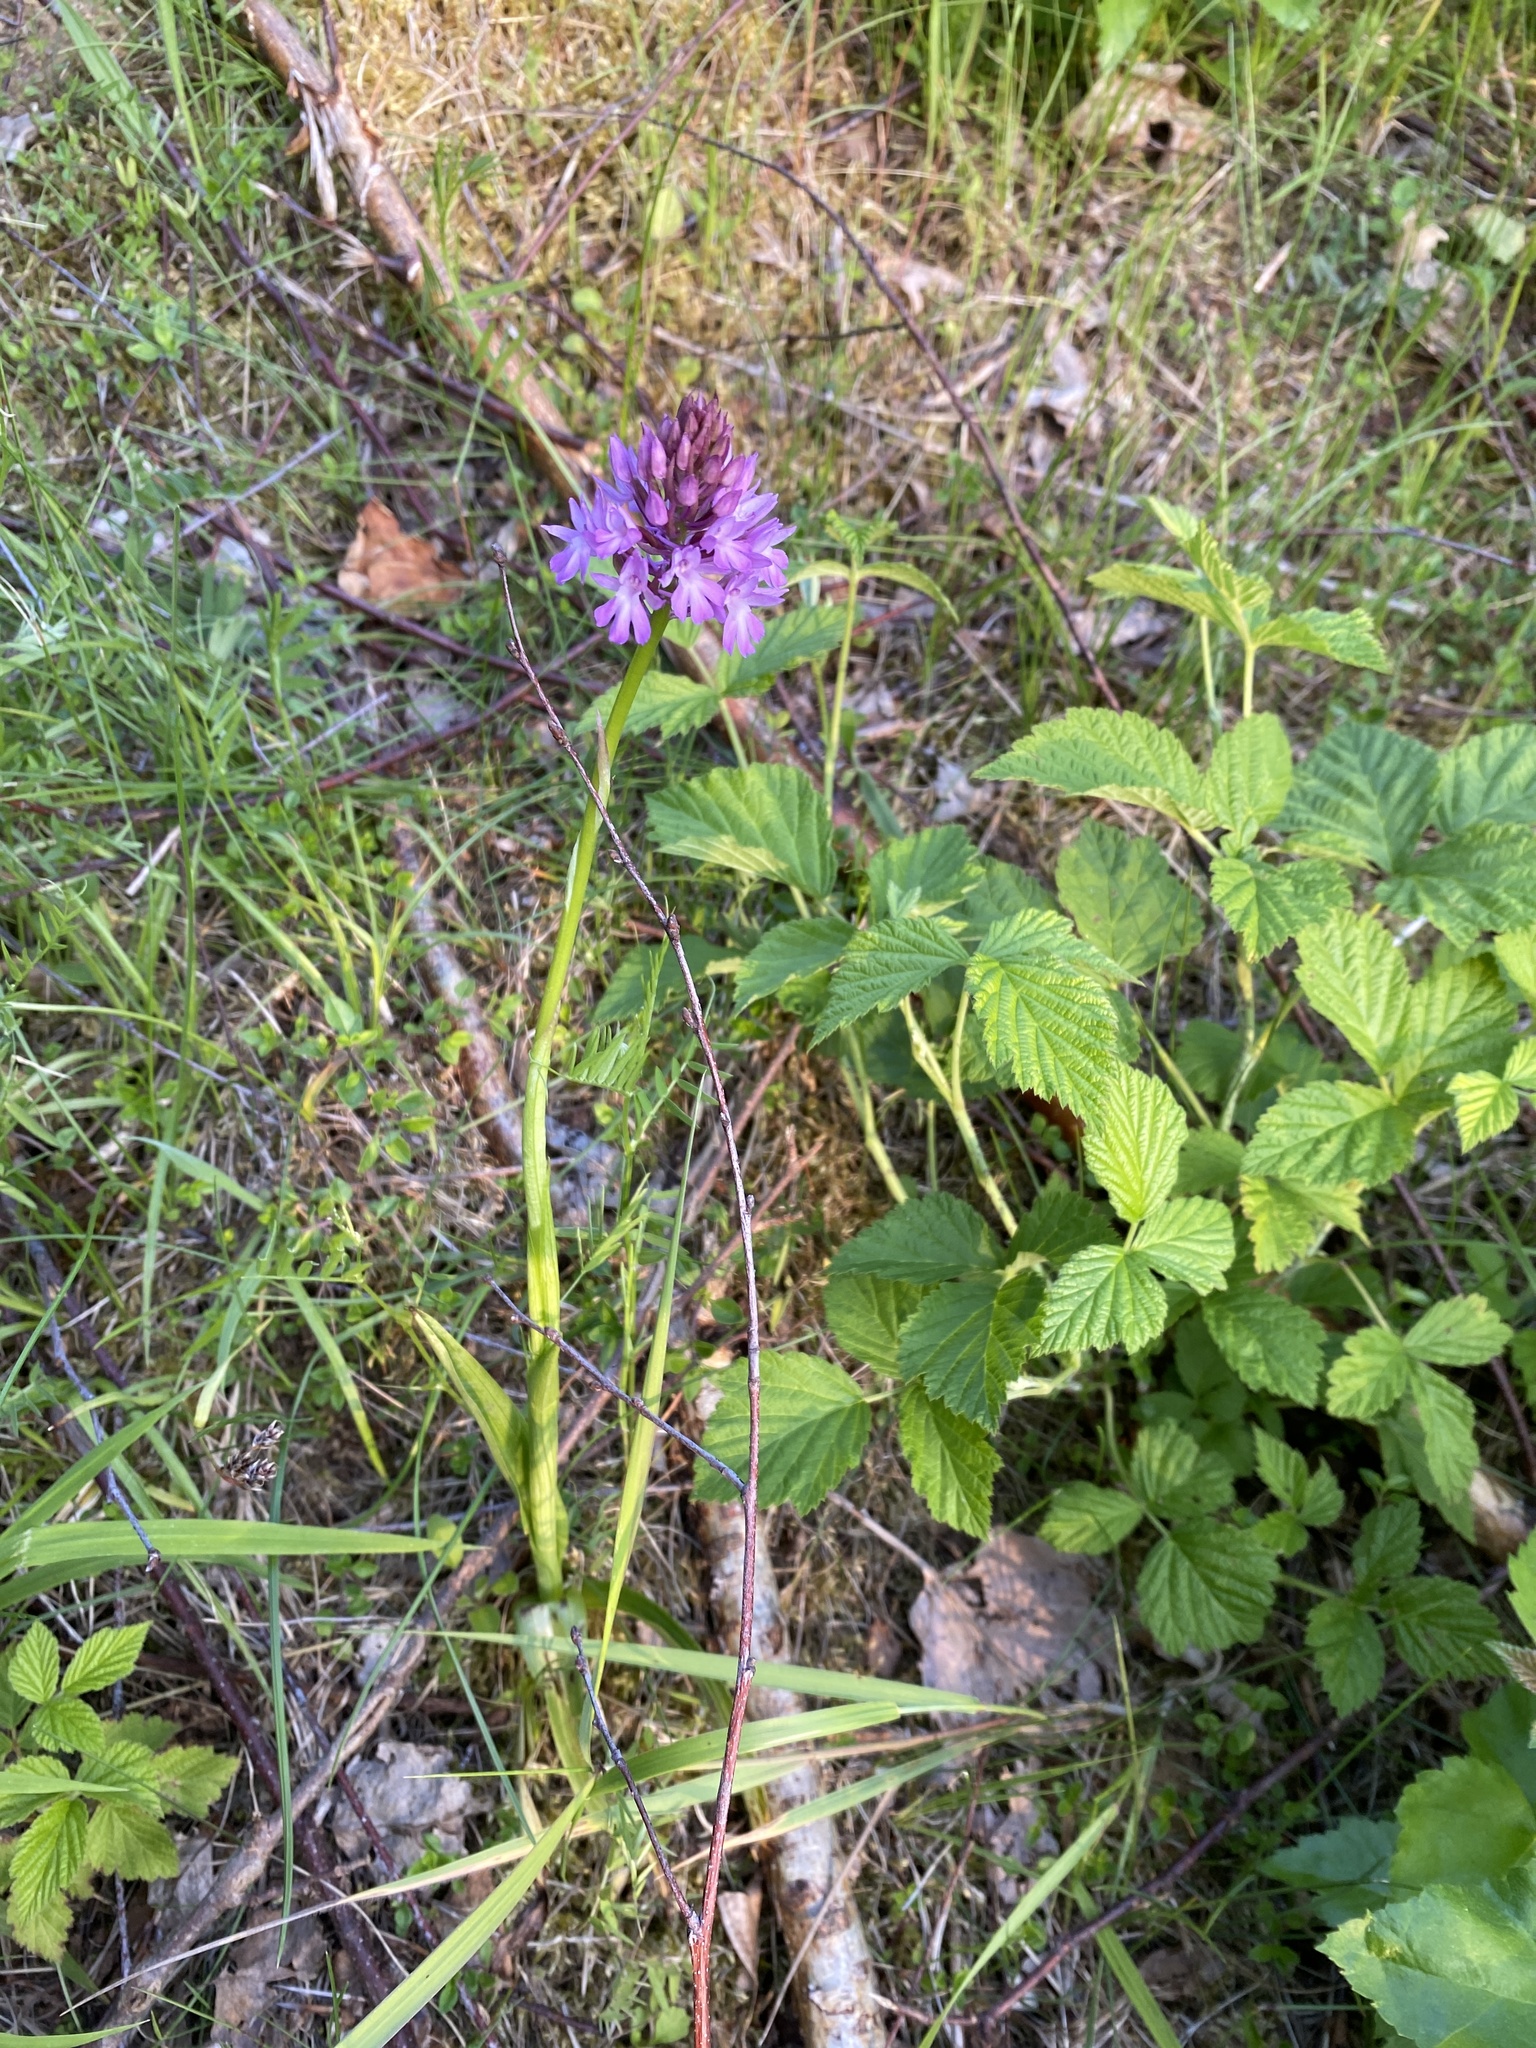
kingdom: Plantae
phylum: Tracheophyta
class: Liliopsida
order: Asparagales
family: Orchidaceae
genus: Anacamptis
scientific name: Anacamptis pyramidalis
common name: Pyramidal orchid
